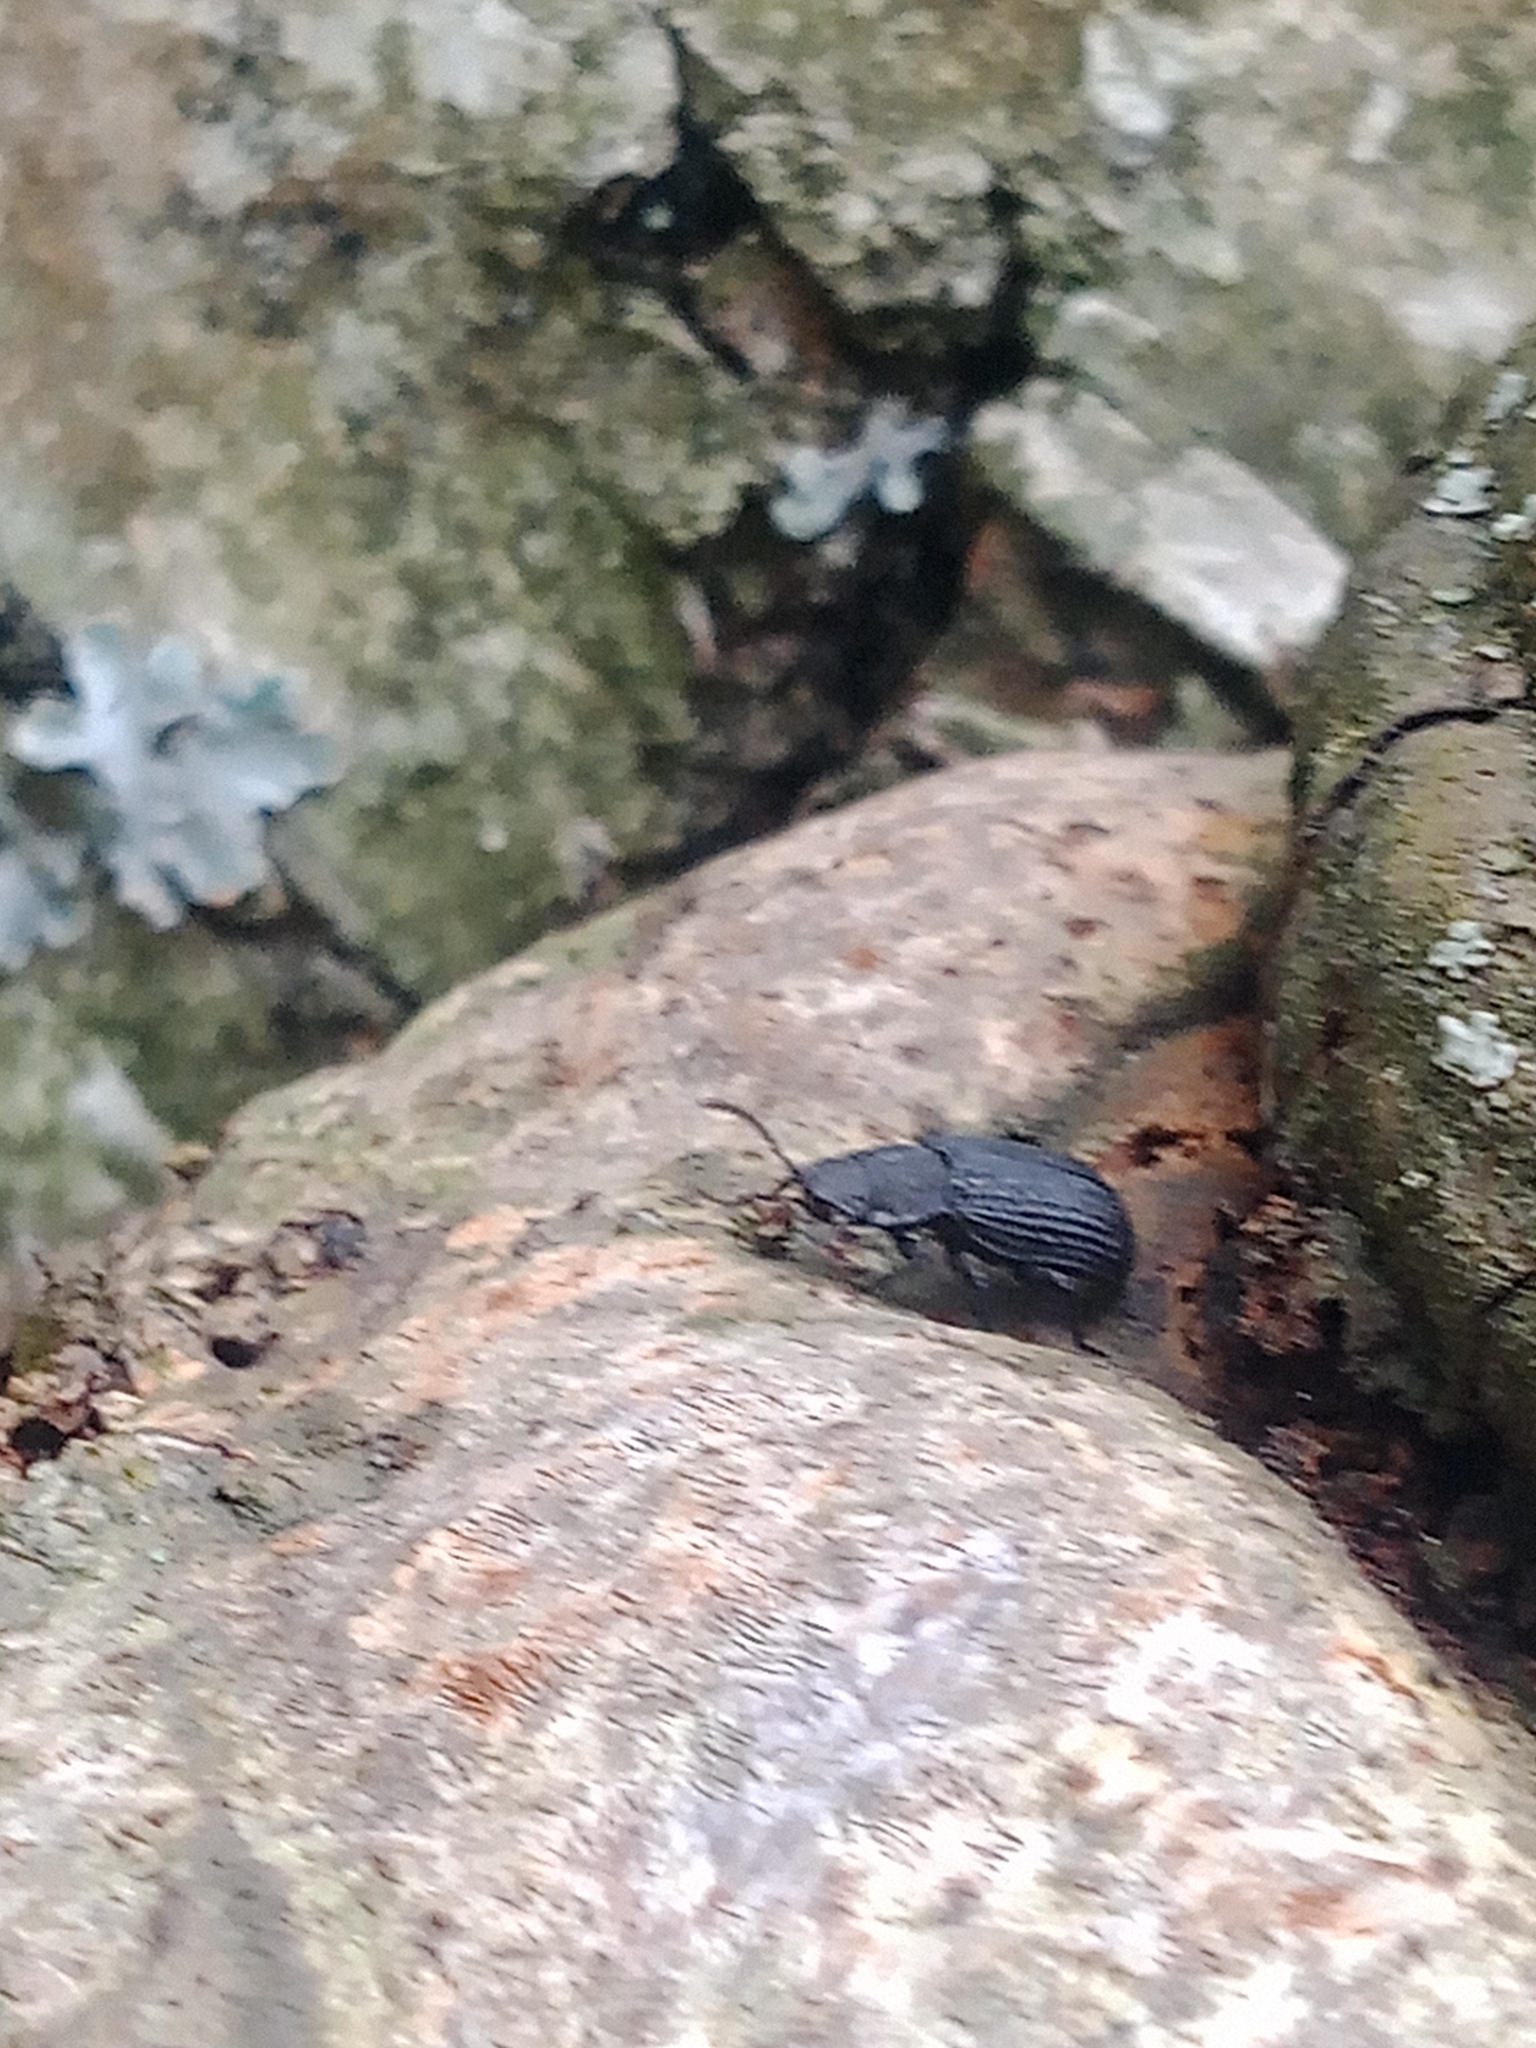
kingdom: Animalia
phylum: Arthropoda
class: Insecta
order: Coleoptera
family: Tenebrionidae
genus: Bolitophagus
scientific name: Bolitophagus reticulatus
